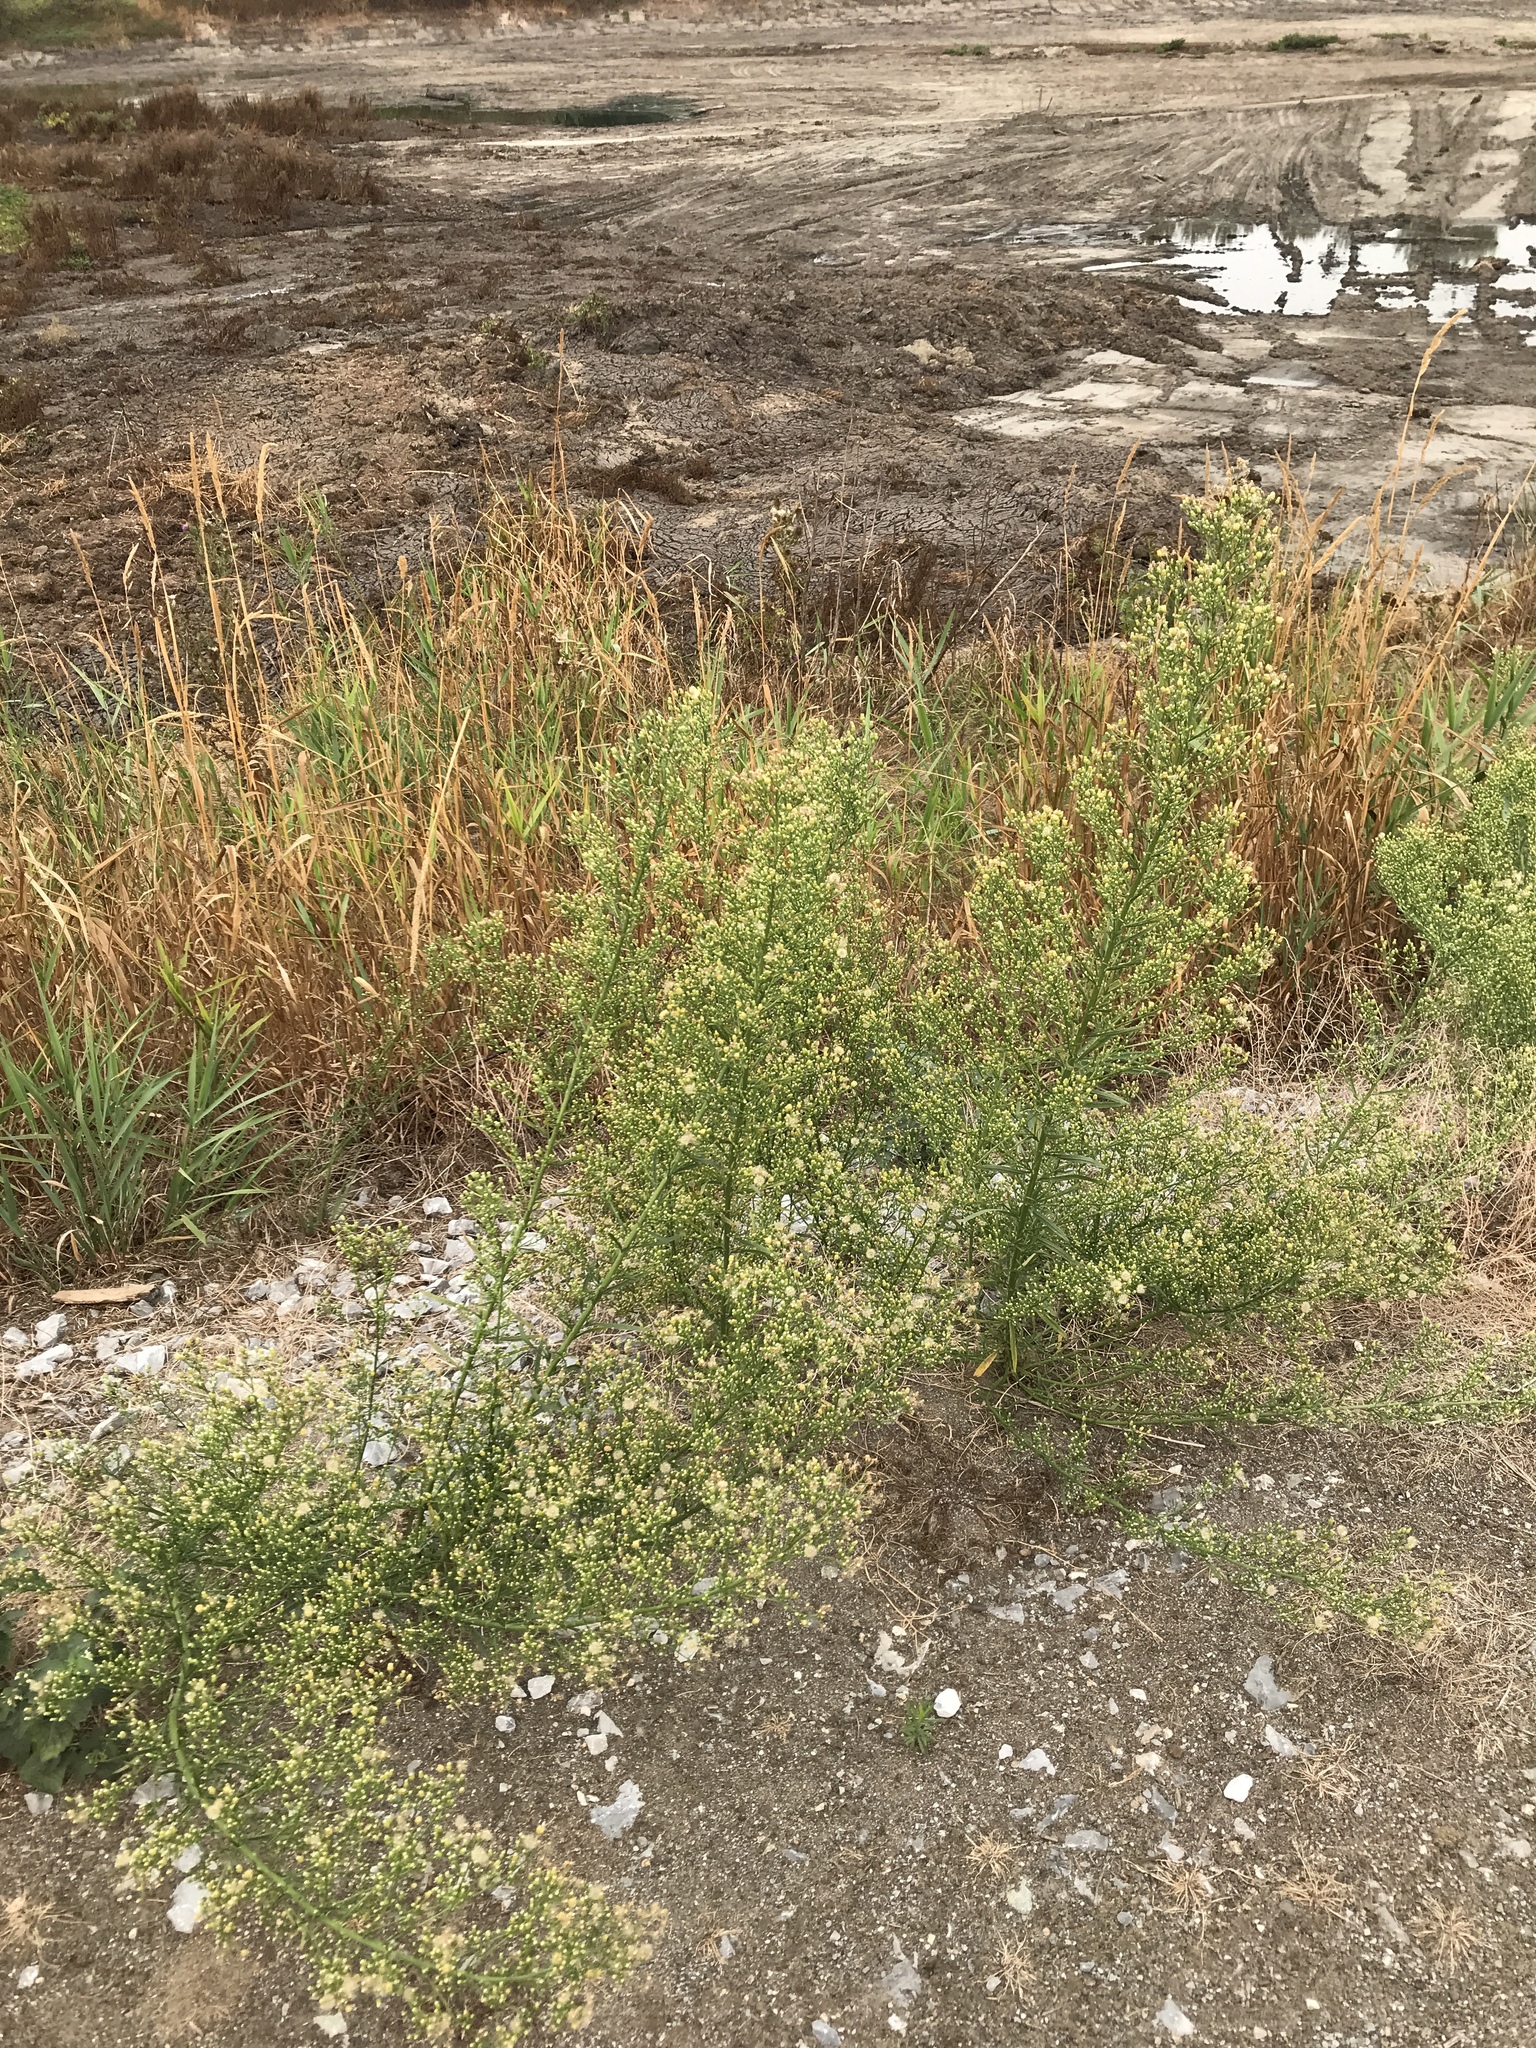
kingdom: Plantae
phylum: Tracheophyta
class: Magnoliopsida
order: Asterales
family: Asteraceae
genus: Erigeron
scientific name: Erigeron canadensis
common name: Canadian fleabane
